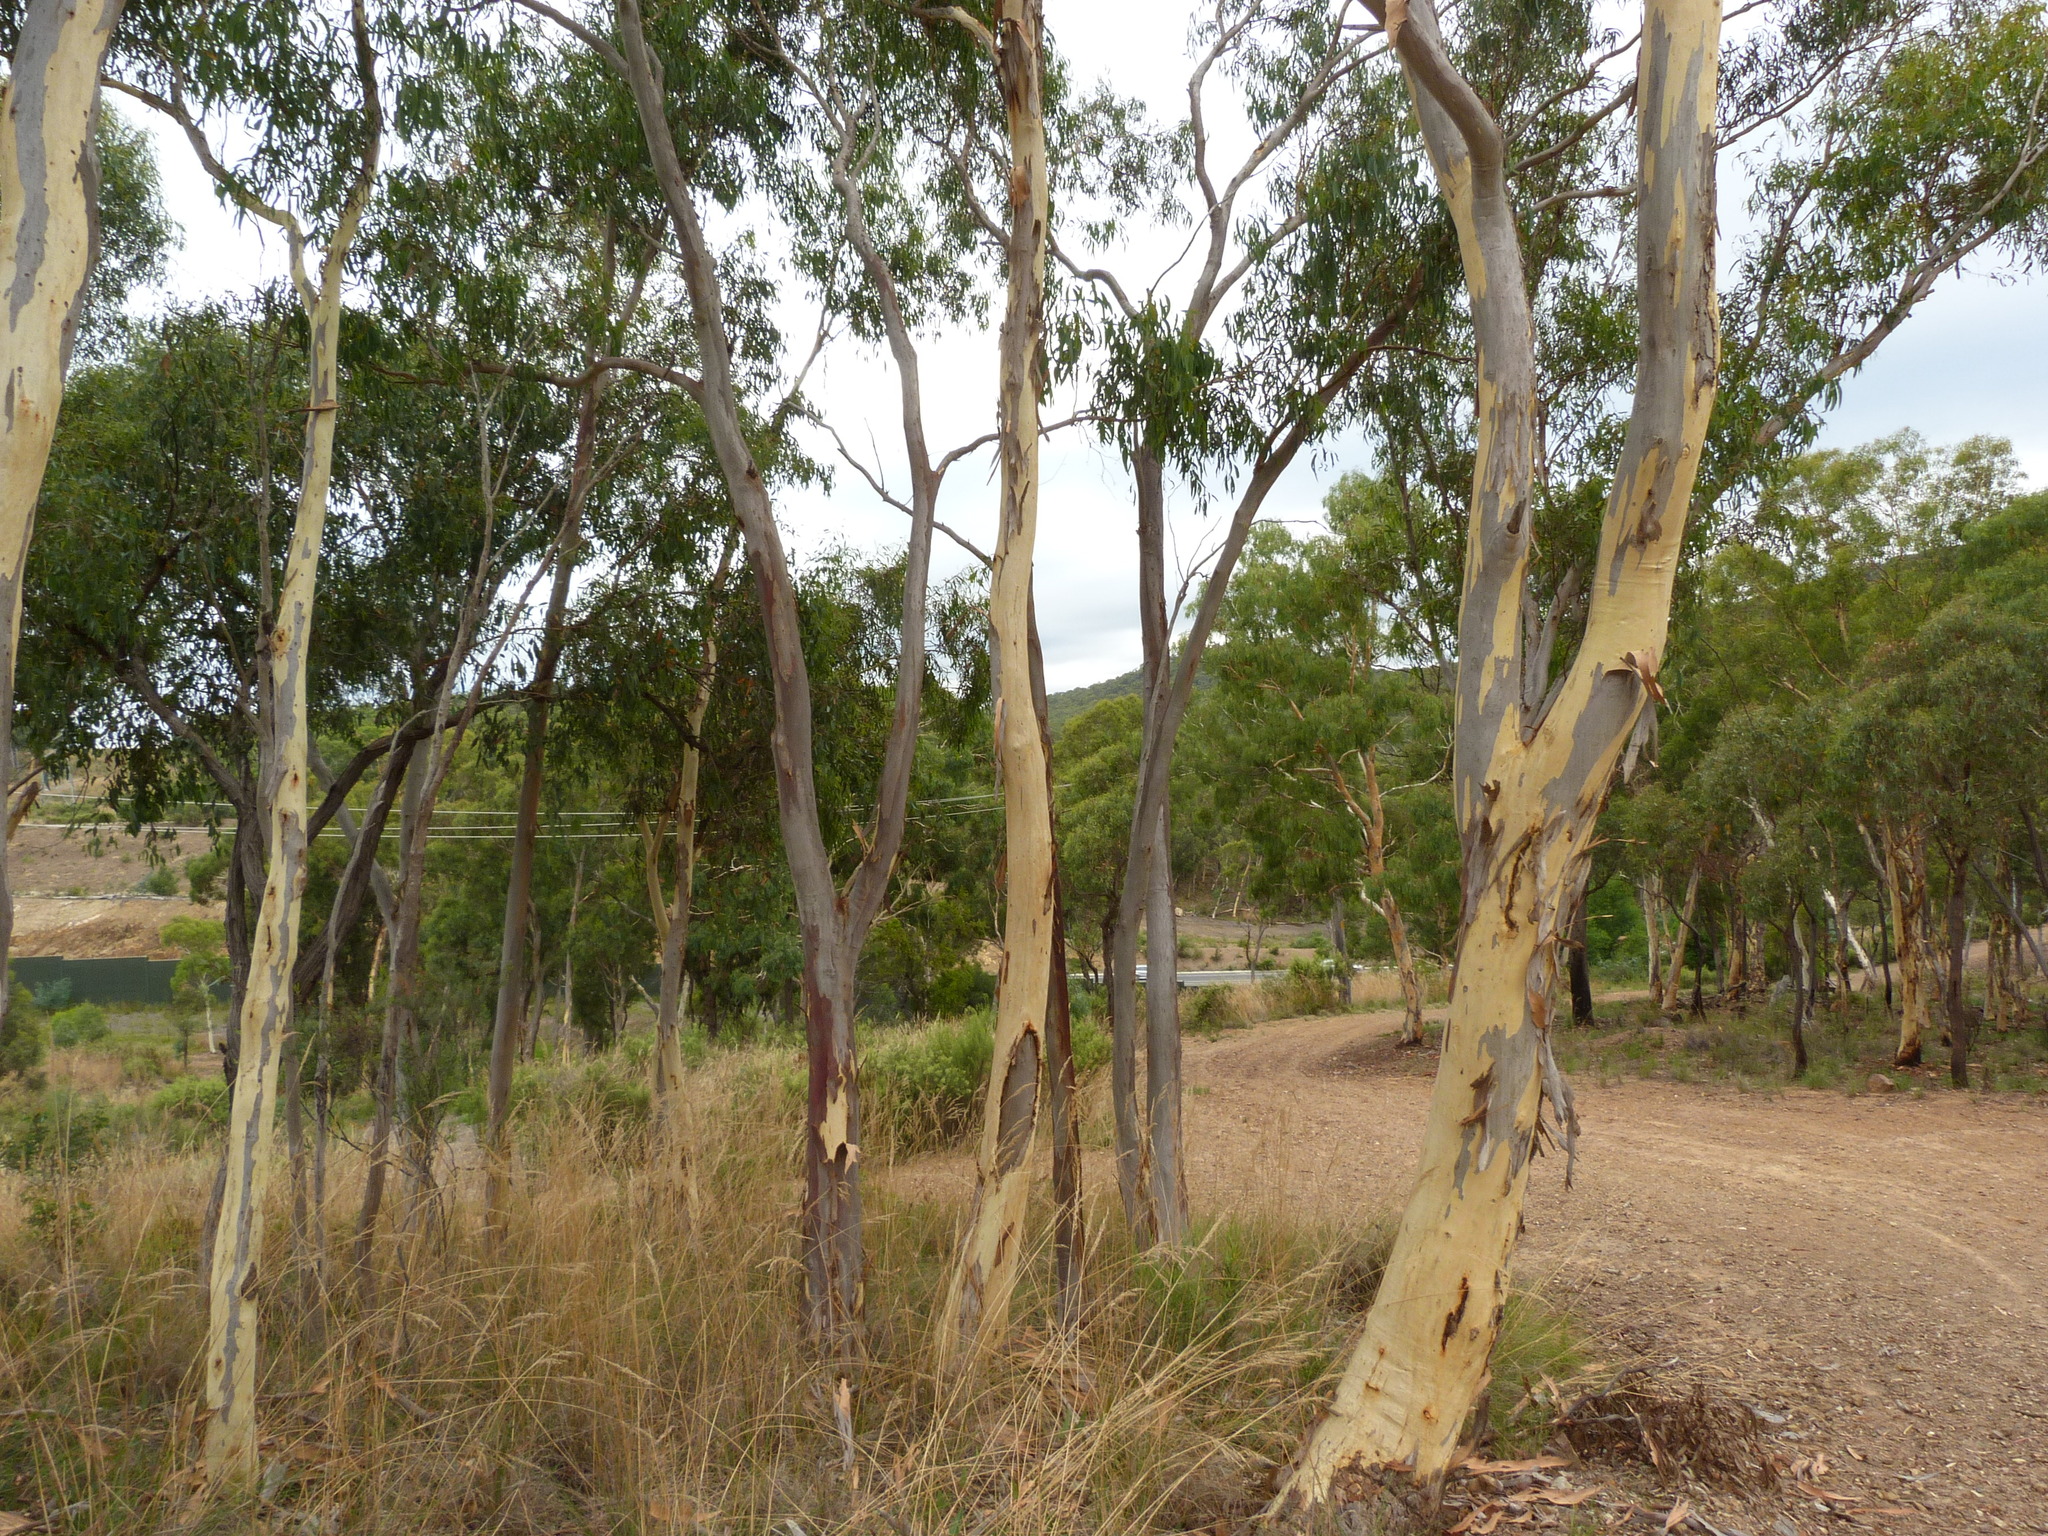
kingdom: Plantae
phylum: Tracheophyta
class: Magnoliopsida
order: Myrtales
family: Myrtaceae
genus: Eucalyptus
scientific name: Eucalyptus racemosa
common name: Scribbly gum
